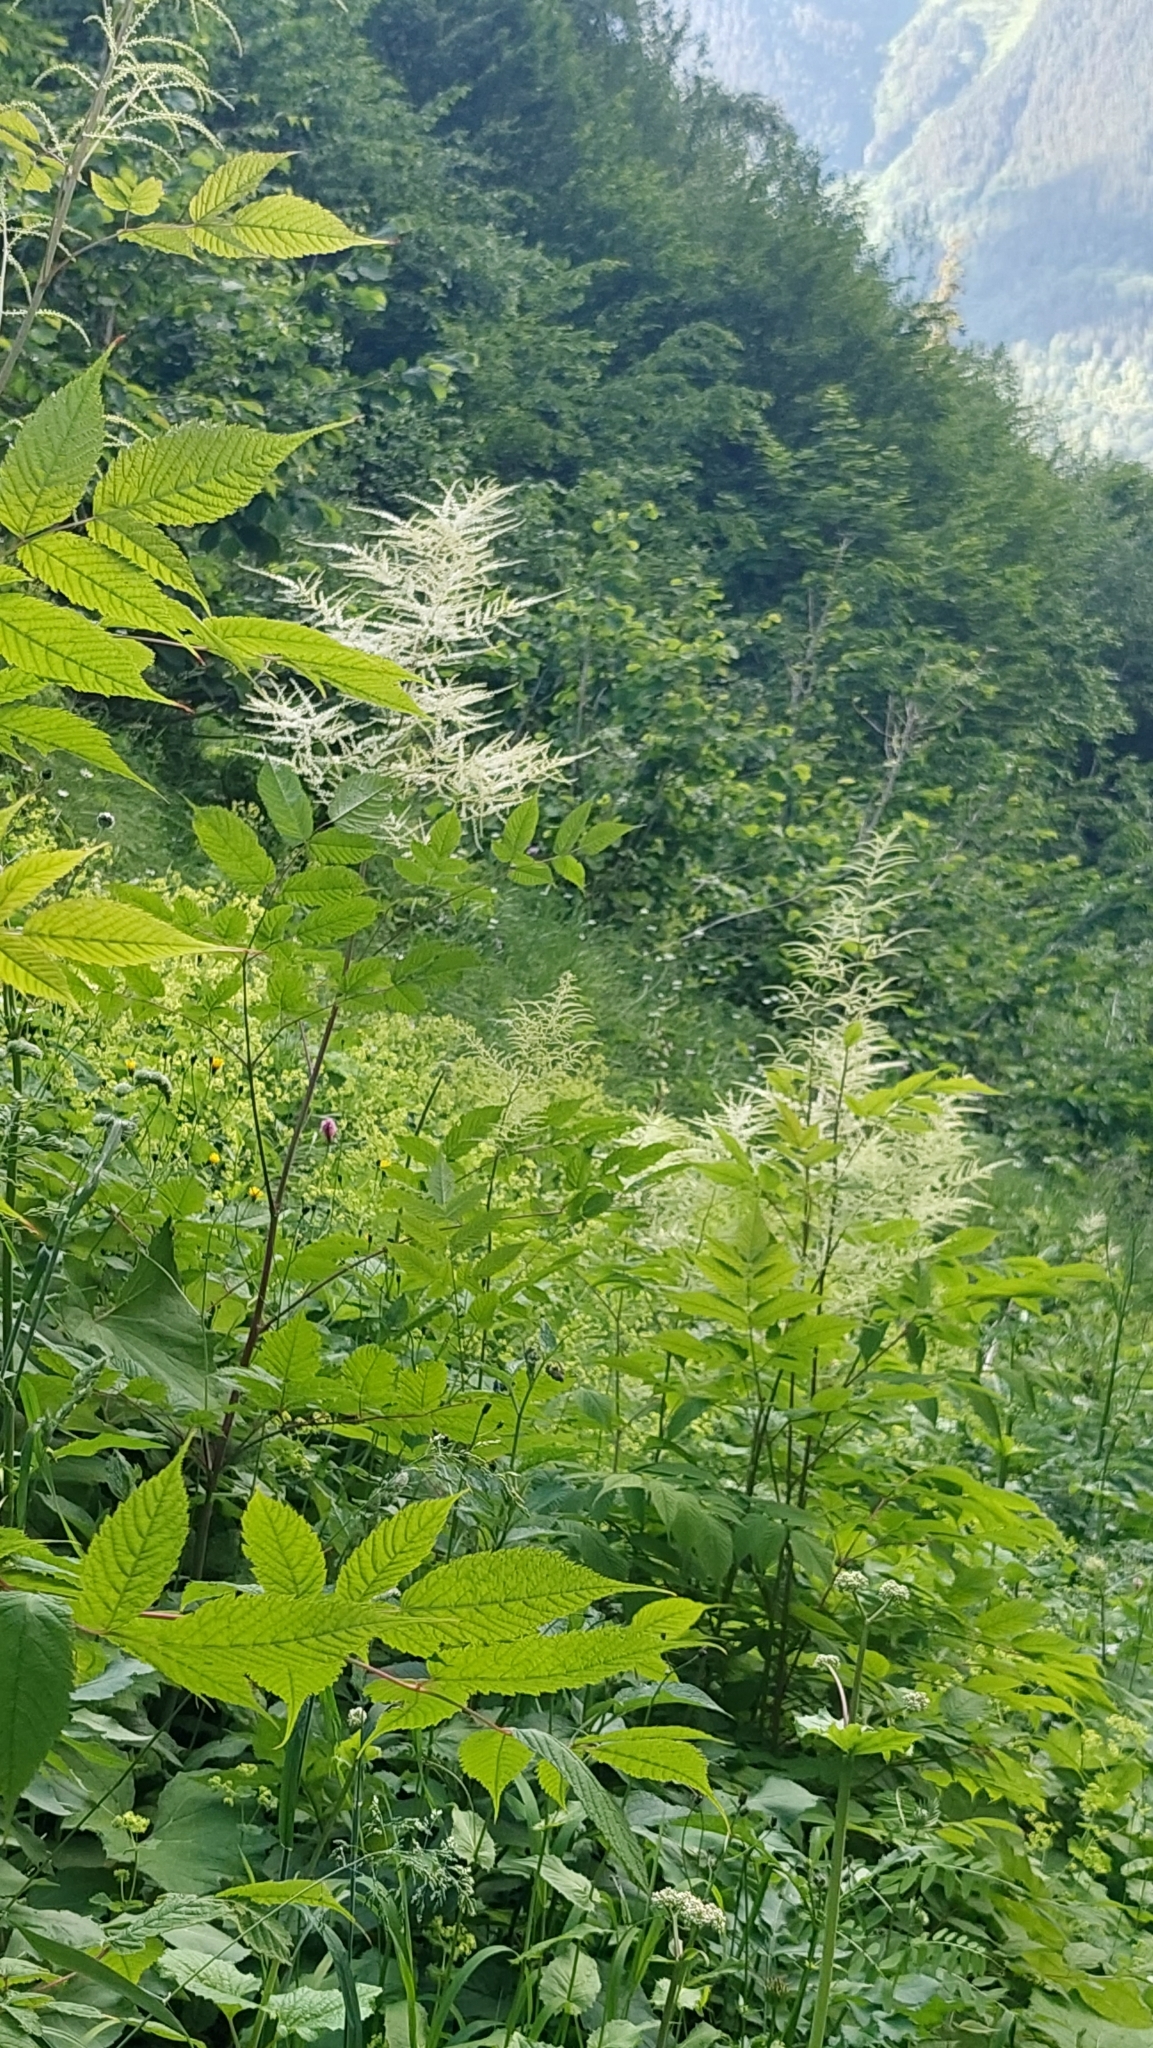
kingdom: Plantae
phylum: Tracheophyta
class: Magnoliopsida
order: Rosales
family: Rosaceae
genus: Aruncus
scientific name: Aruncus dioicus
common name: Buck's-beard
